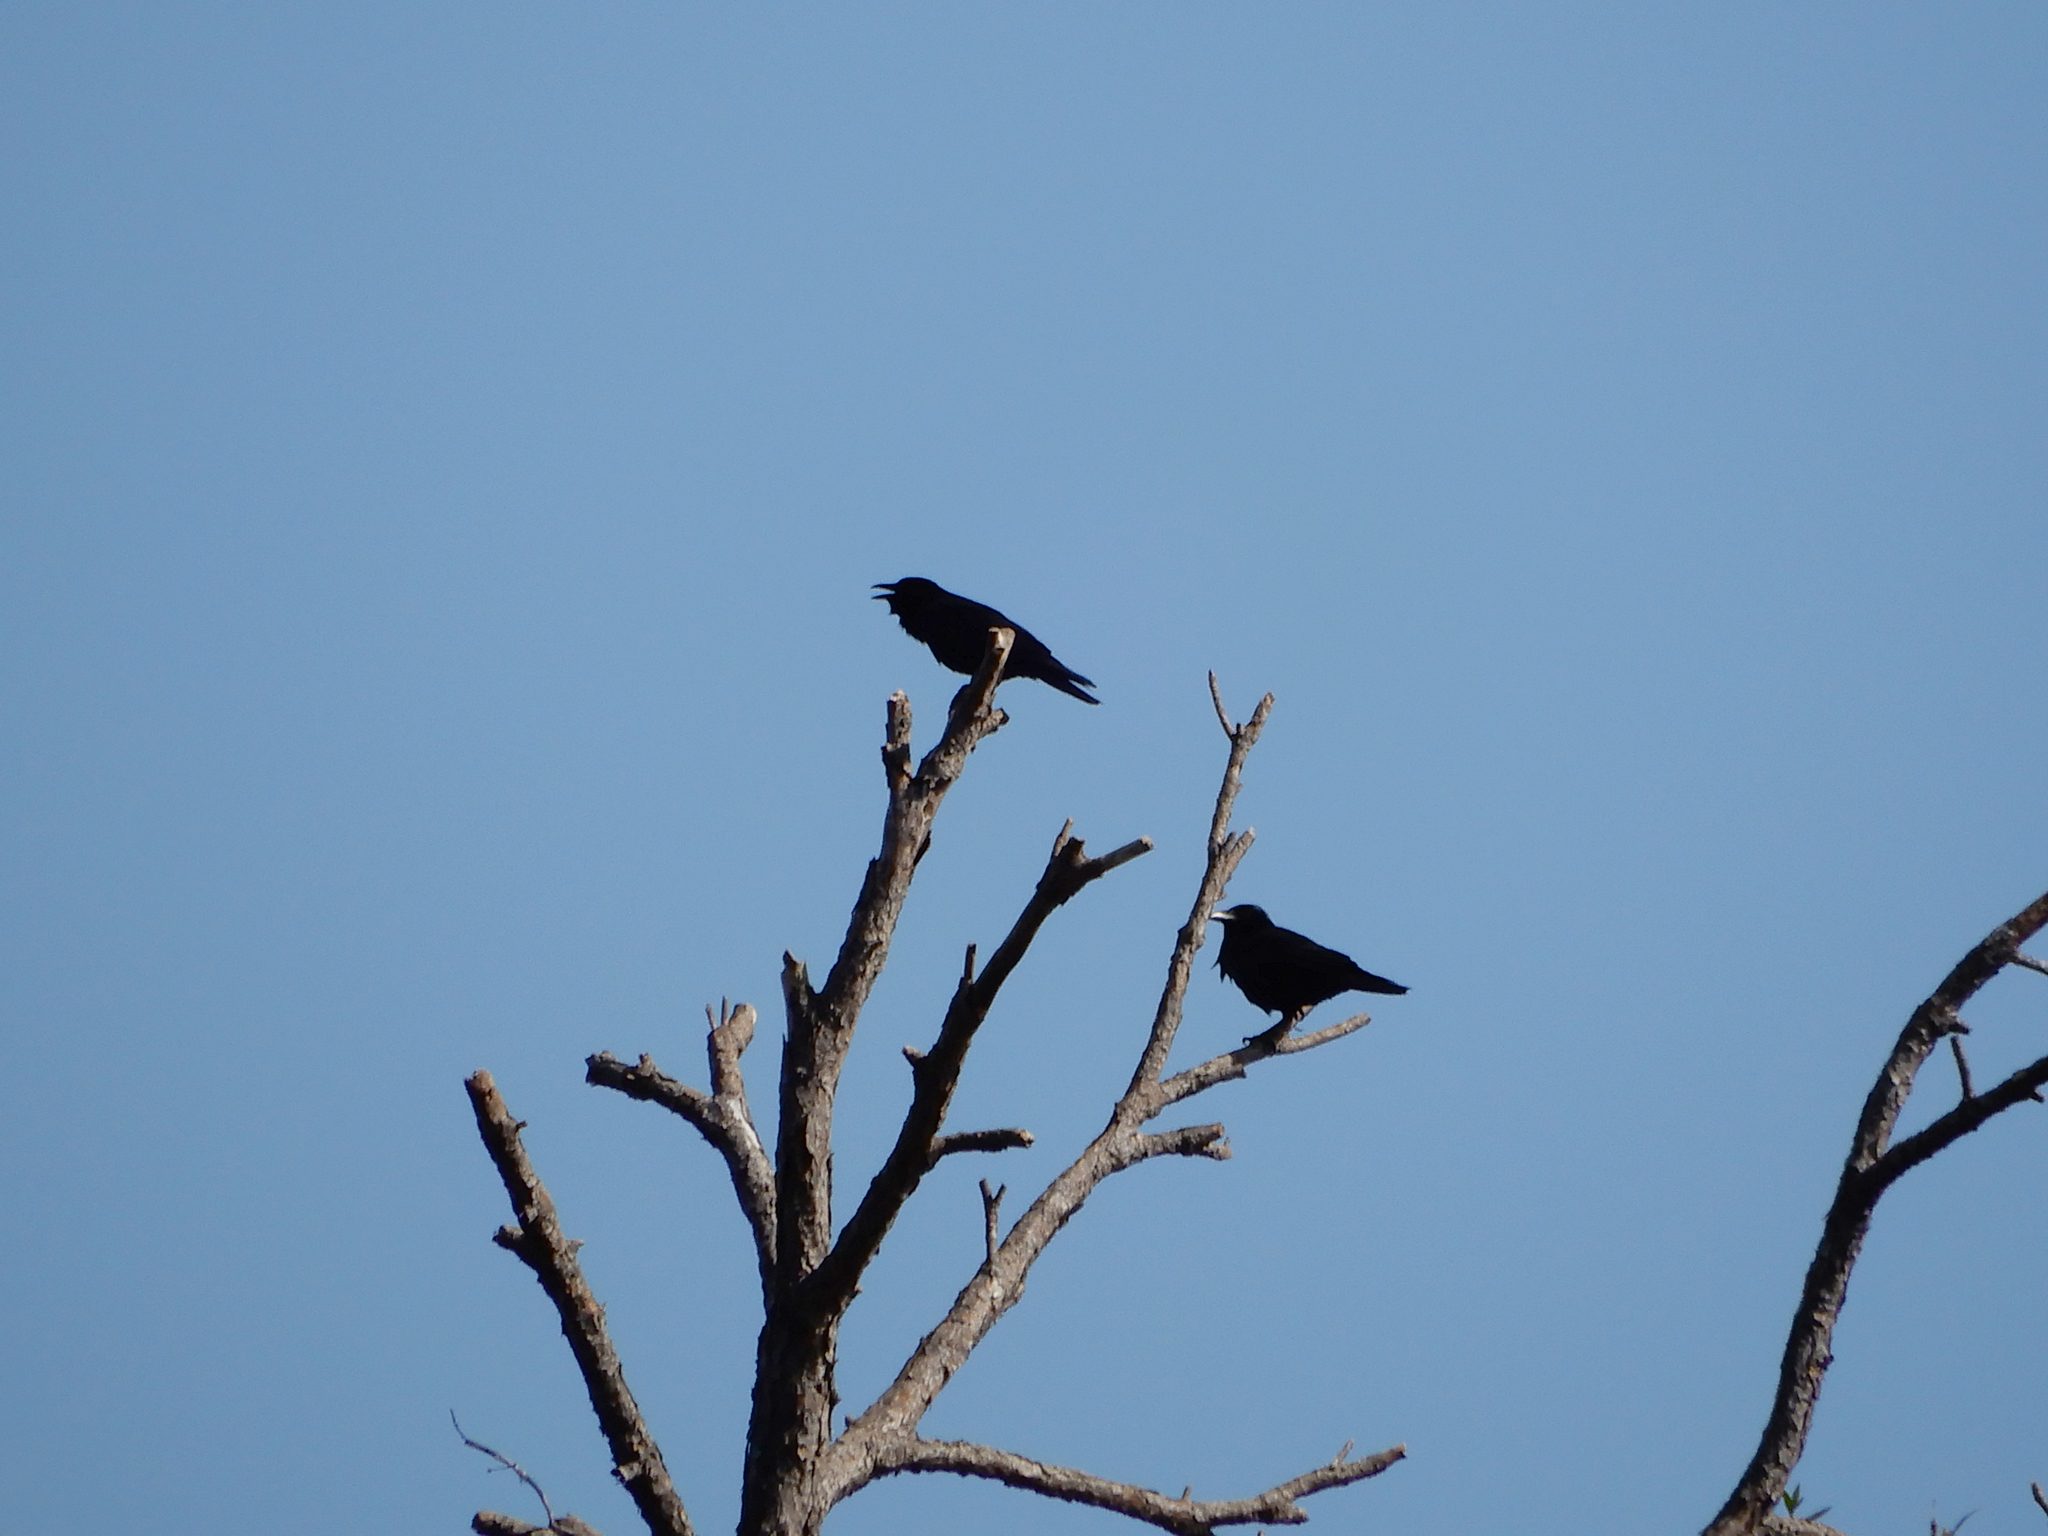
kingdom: Animalia
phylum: Chordata
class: Aves
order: Passeriformes
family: Corvidae
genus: Corvus
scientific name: Corvus ossifragus
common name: Fish crow
